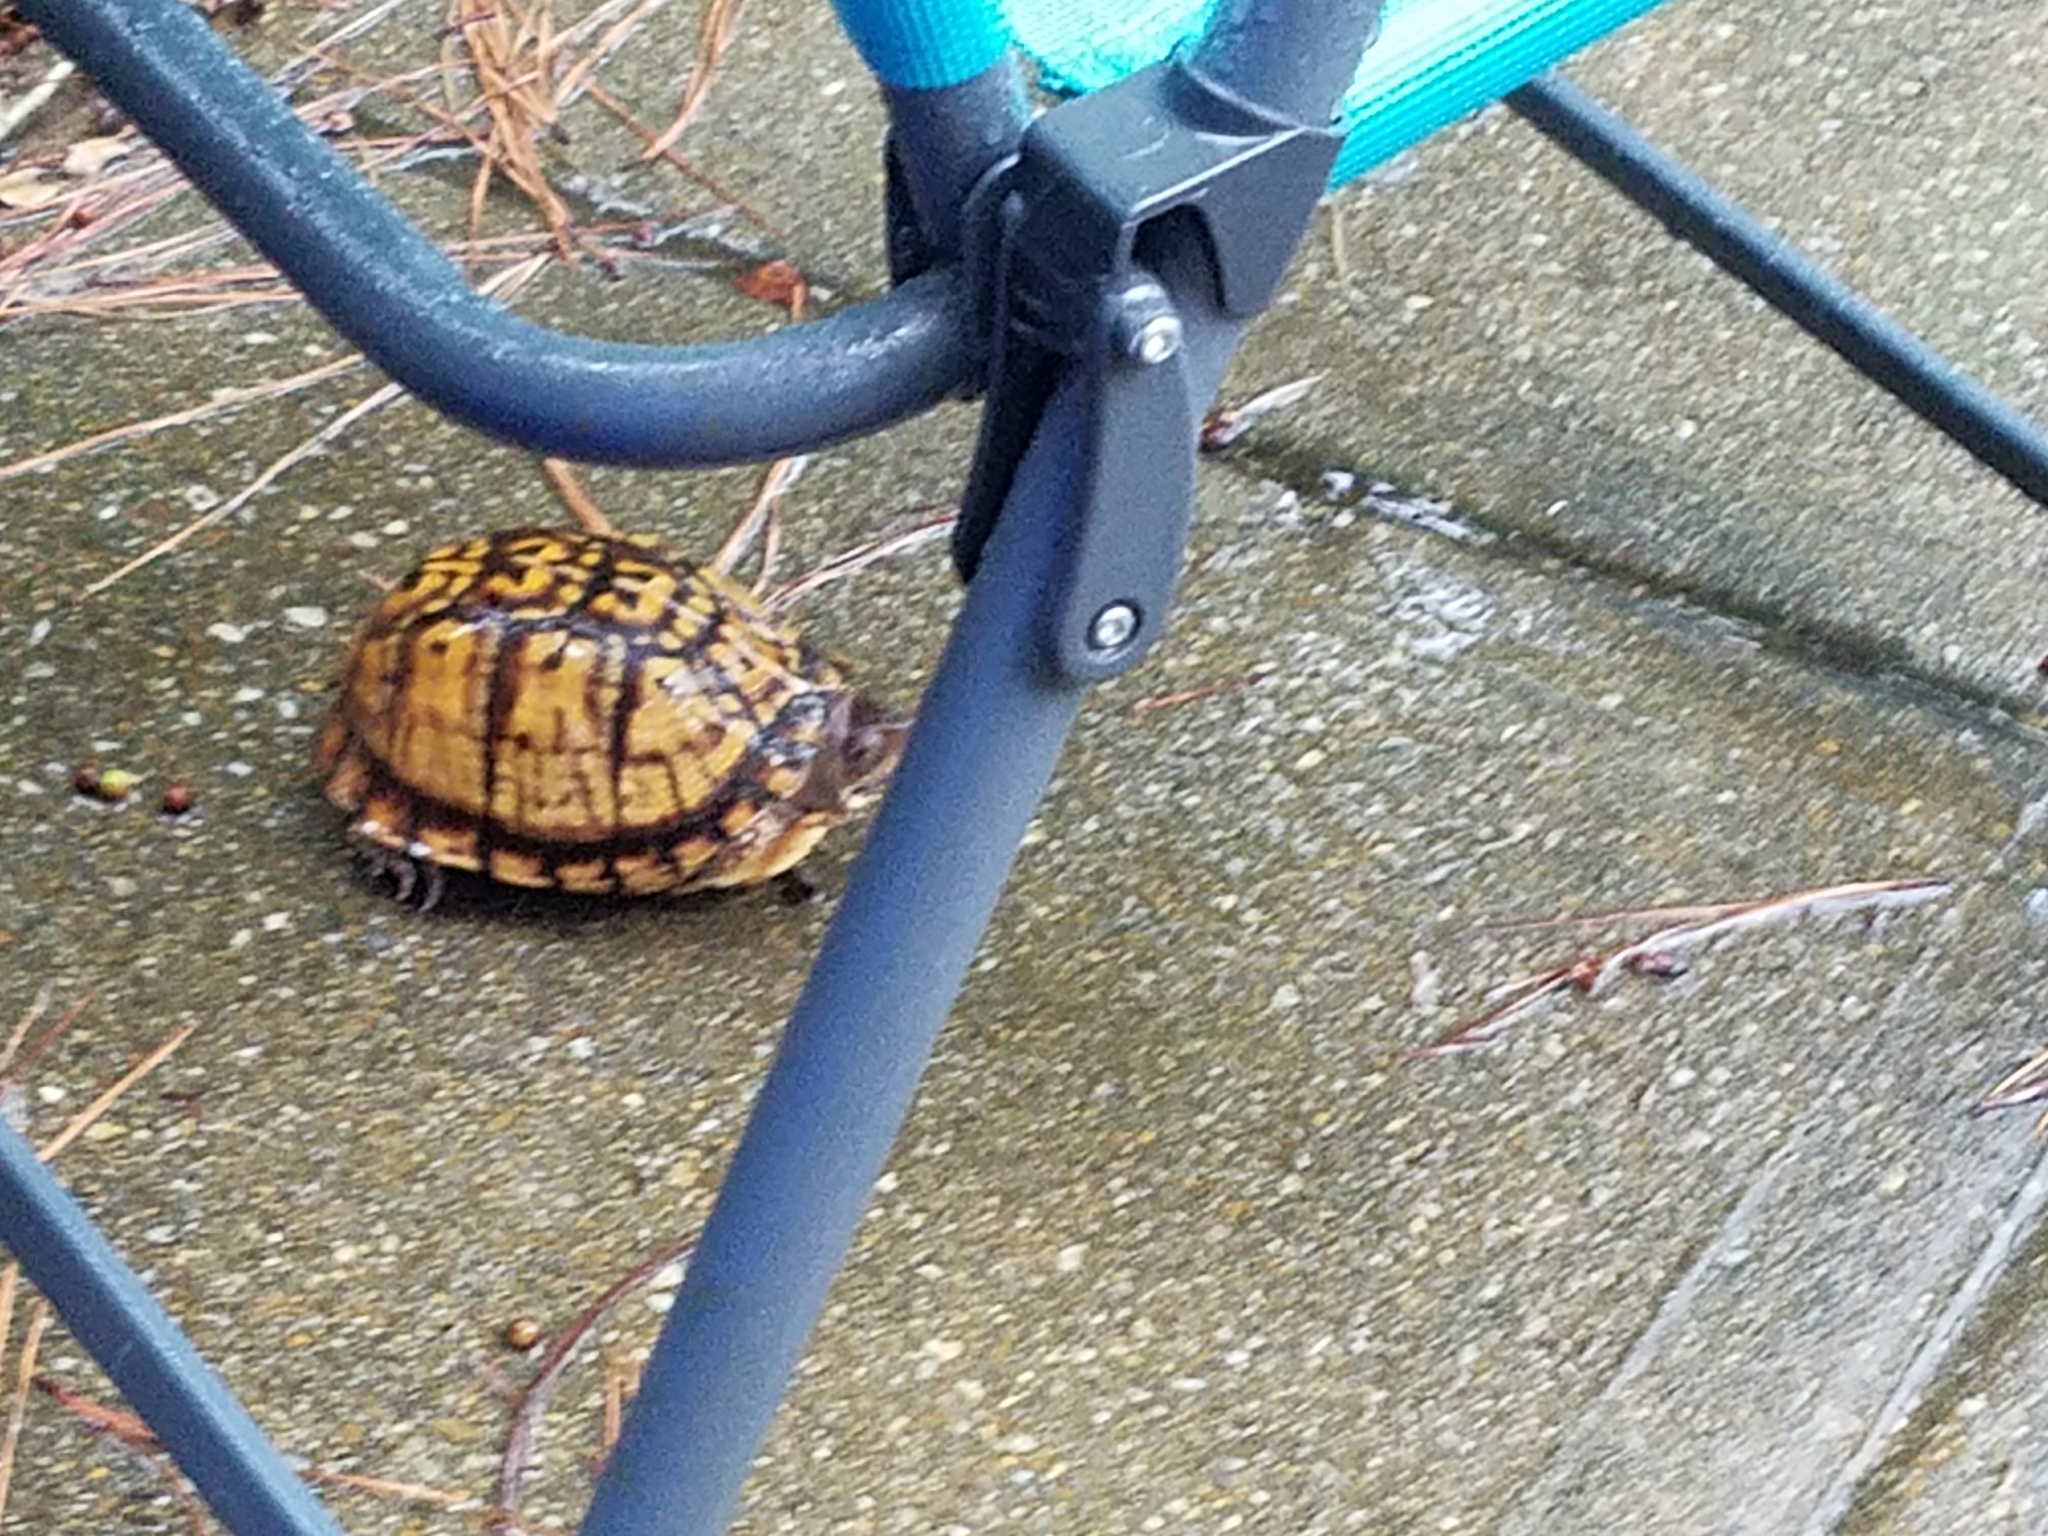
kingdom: Animalia
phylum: Chordata
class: Testudines
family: Emydidae
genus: Terrapene
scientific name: Terrapene carolina
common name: Common box turtle
